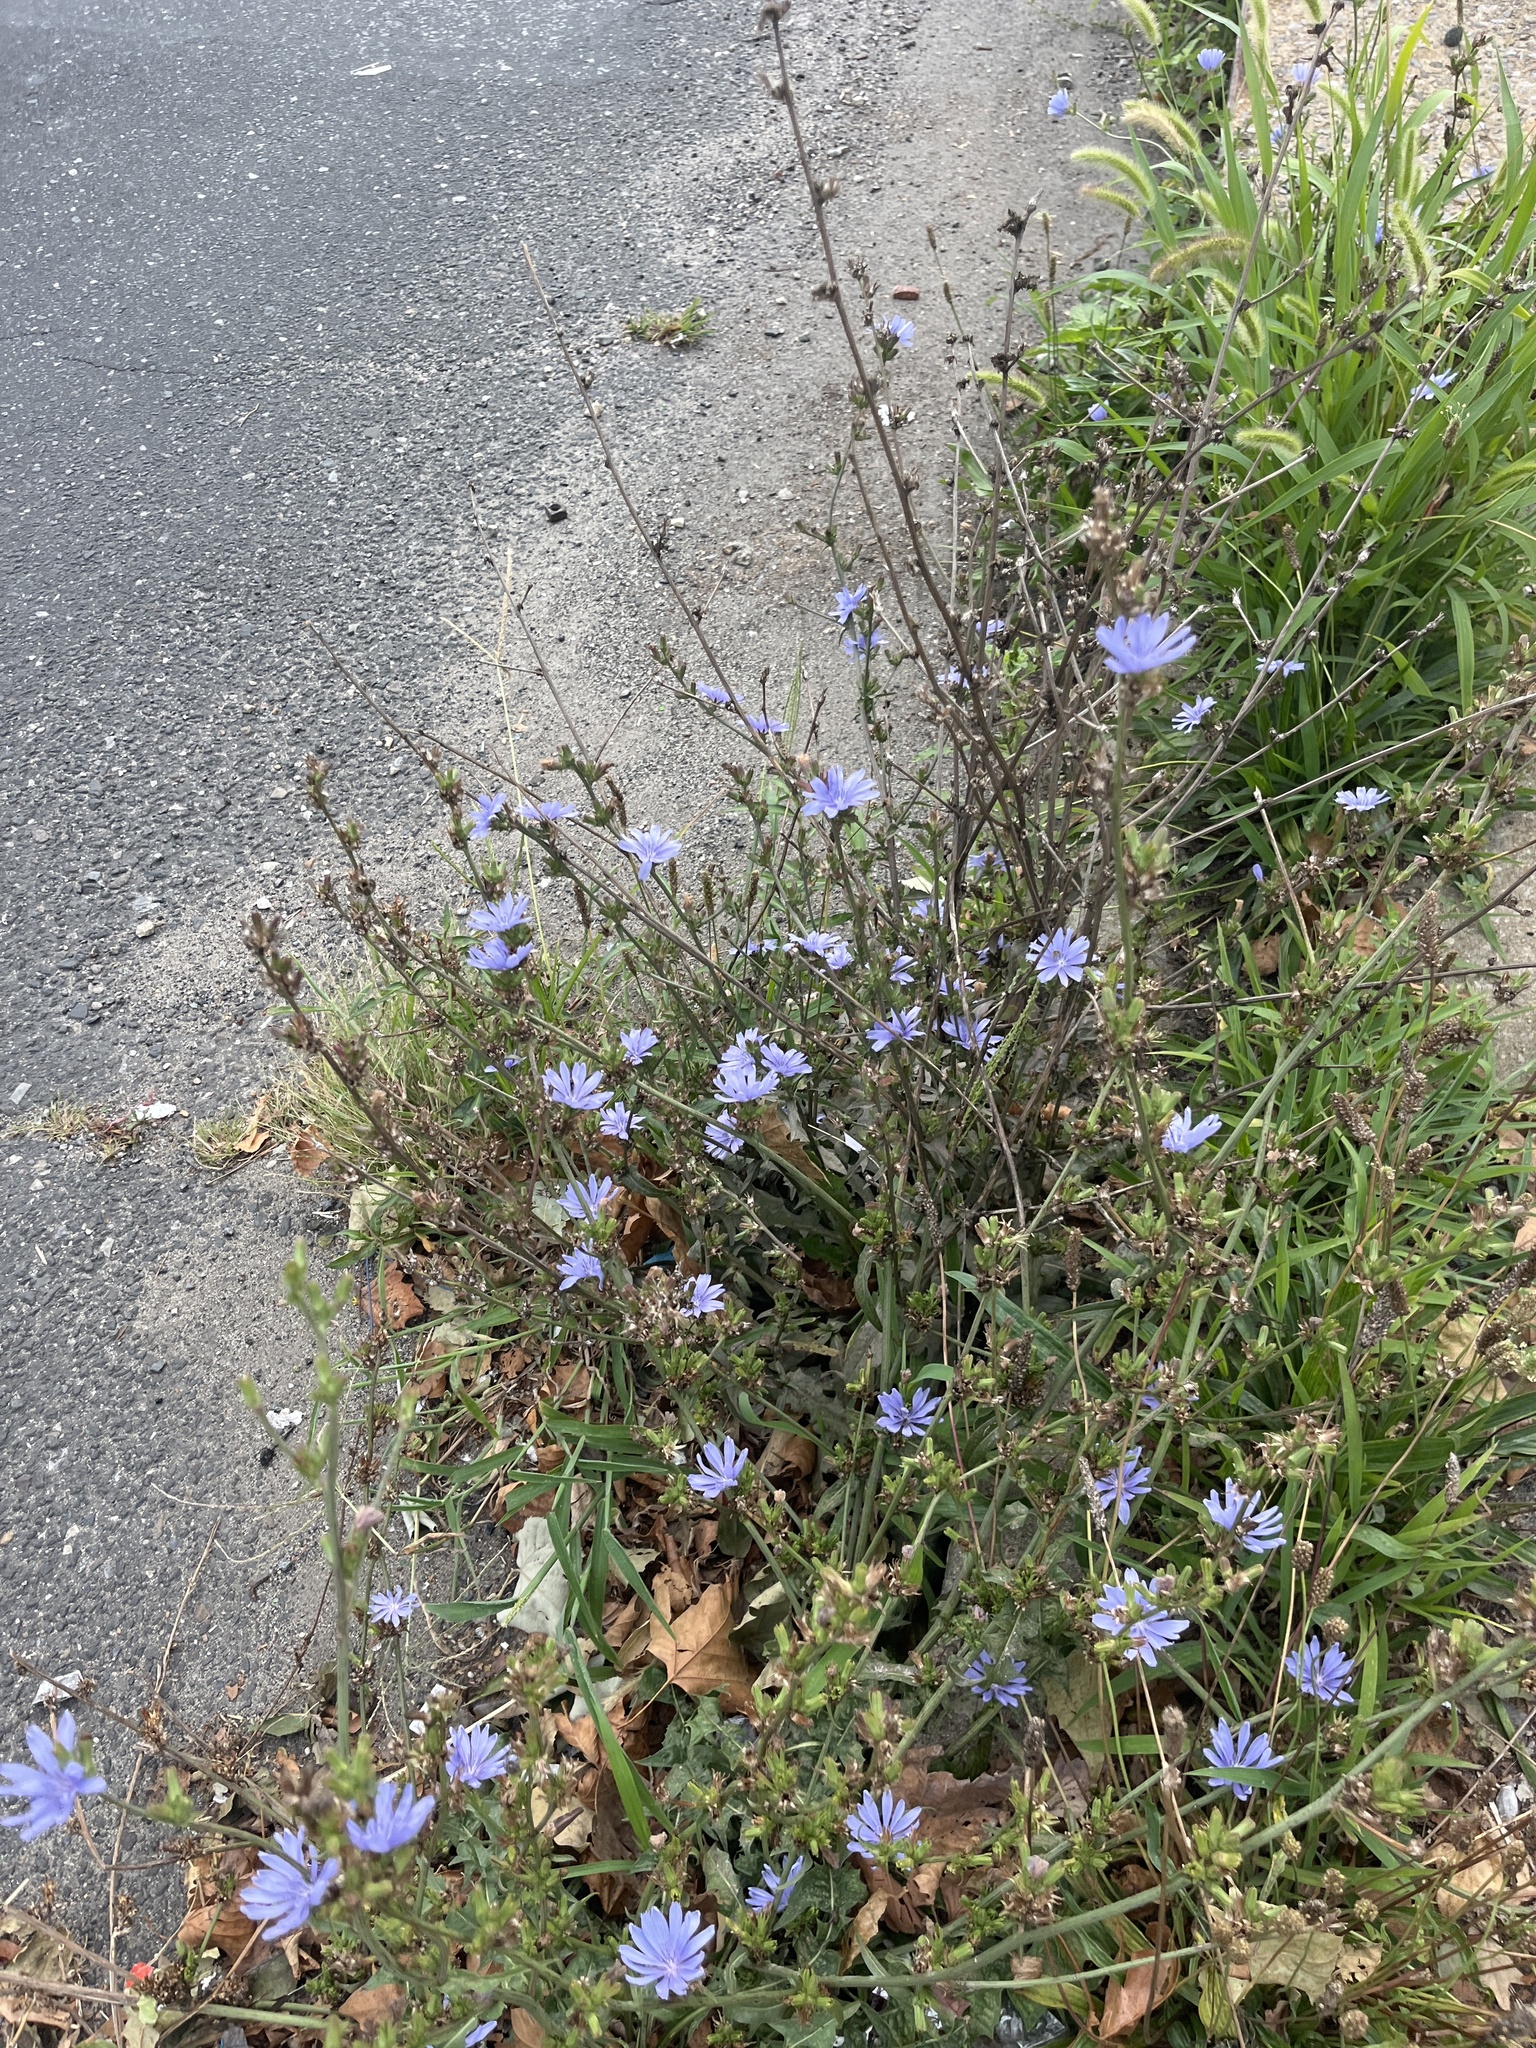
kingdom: Plantae
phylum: Tracheophyta
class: Magnoliopsida
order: Asterales
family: Asteraceae
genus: Cichorium
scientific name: Cichorium intybus
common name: Chicory
